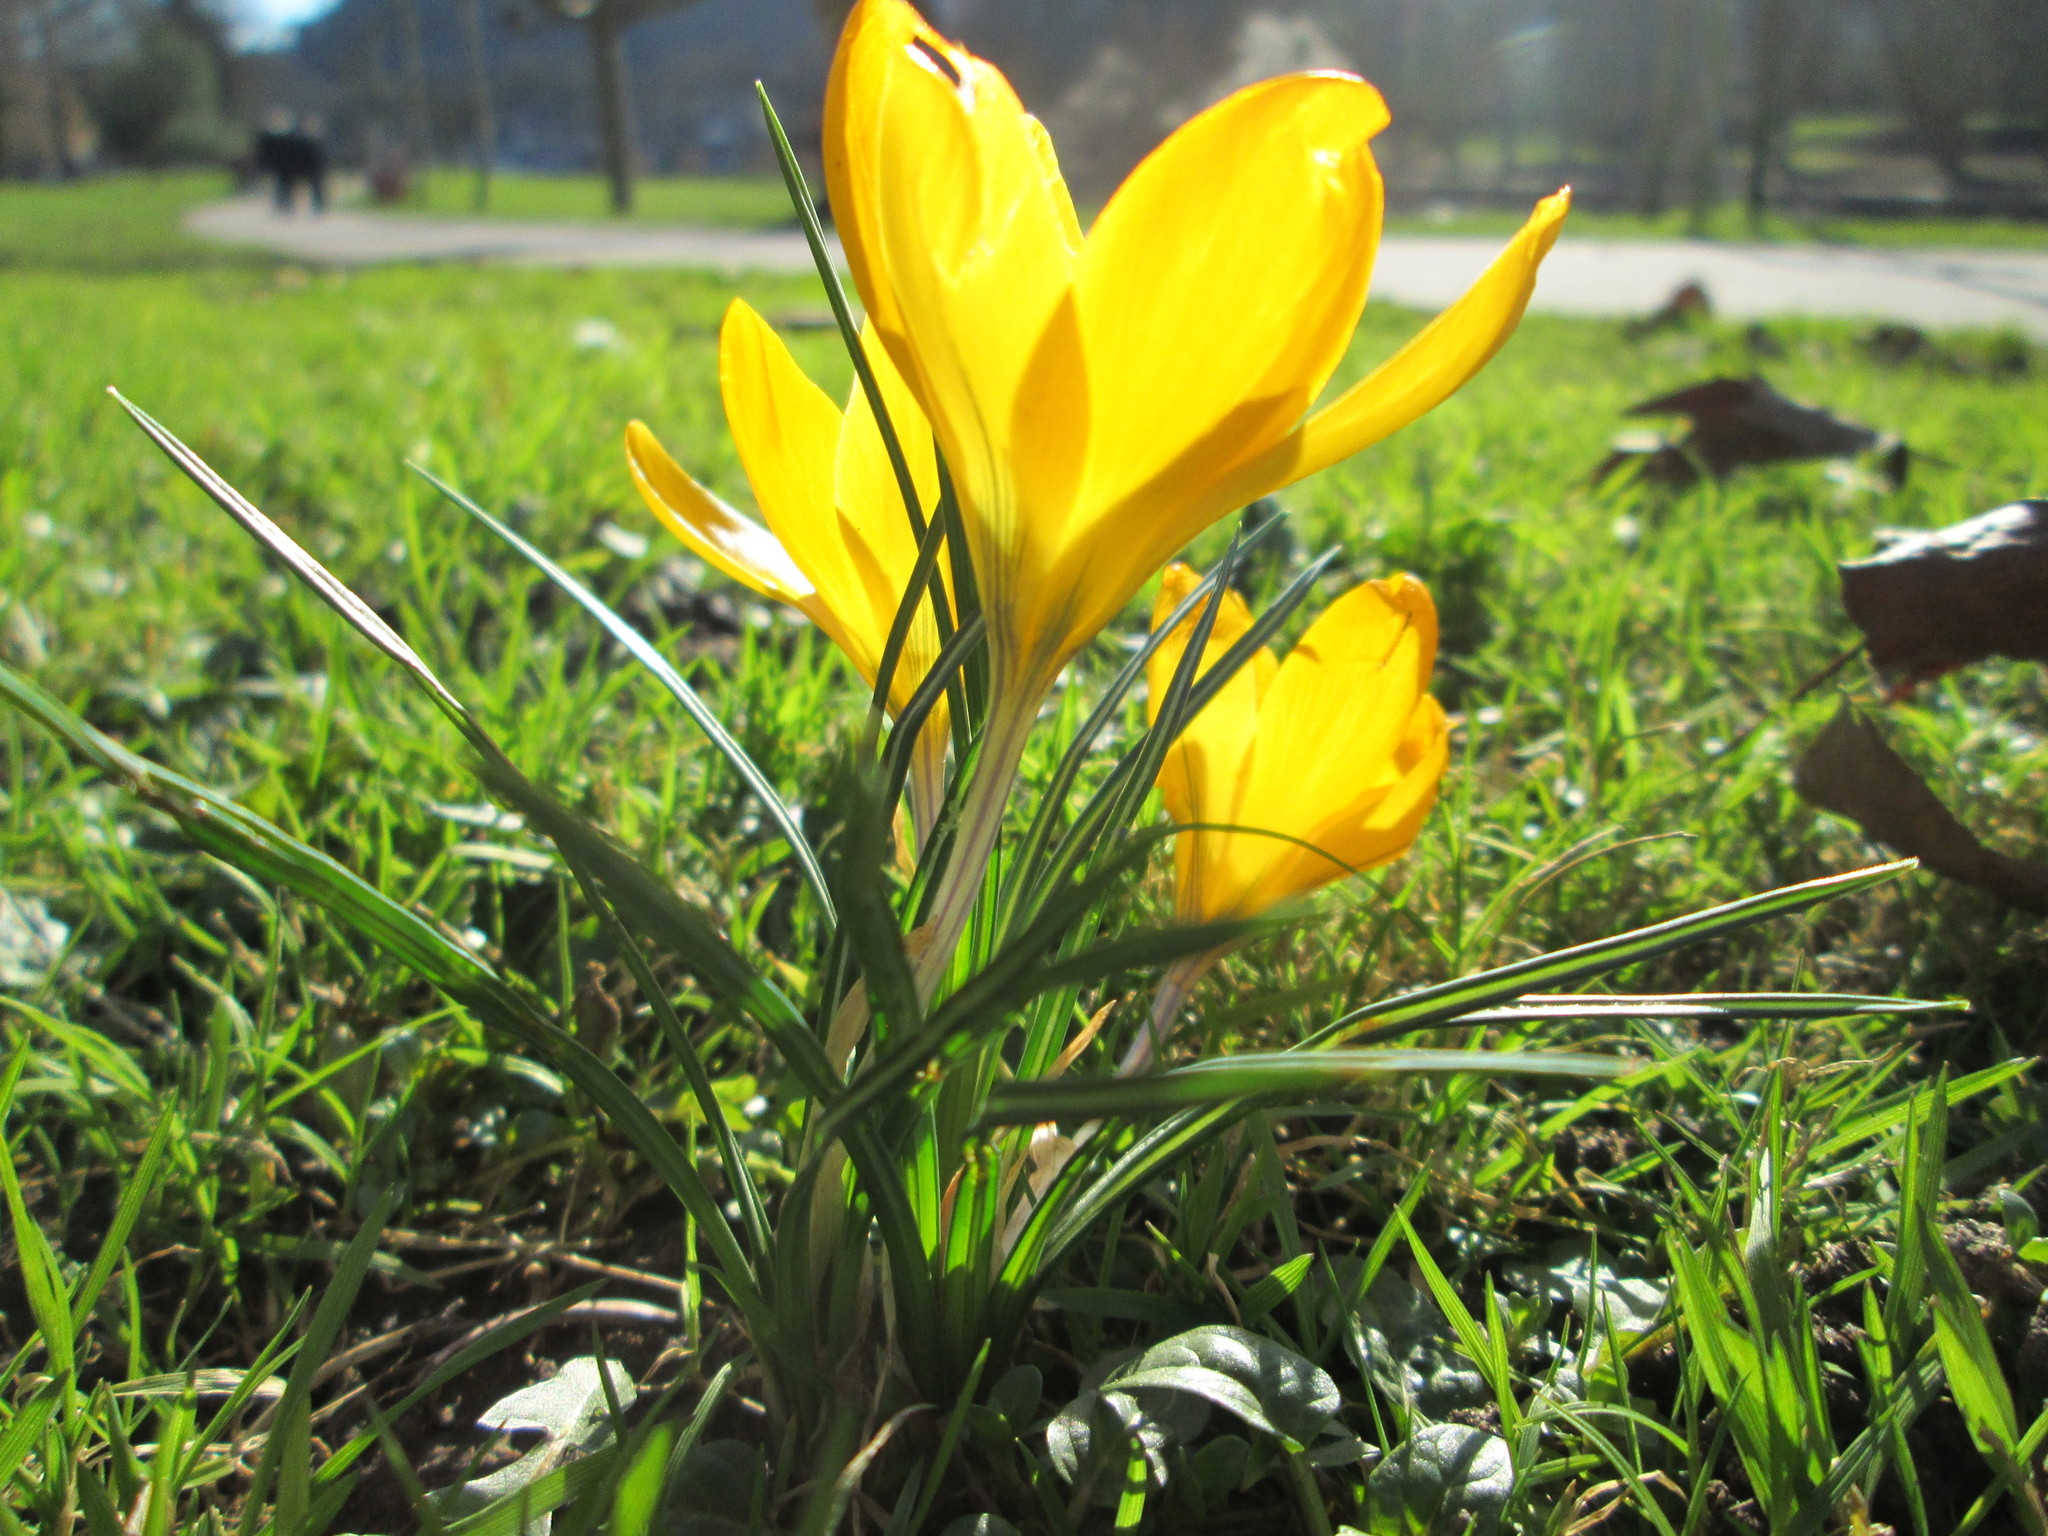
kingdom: Plantae
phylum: Tracheophyta
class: Liliopsida
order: Asparagales
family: Iridaceae
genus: Crocus
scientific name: Crocus luteus
